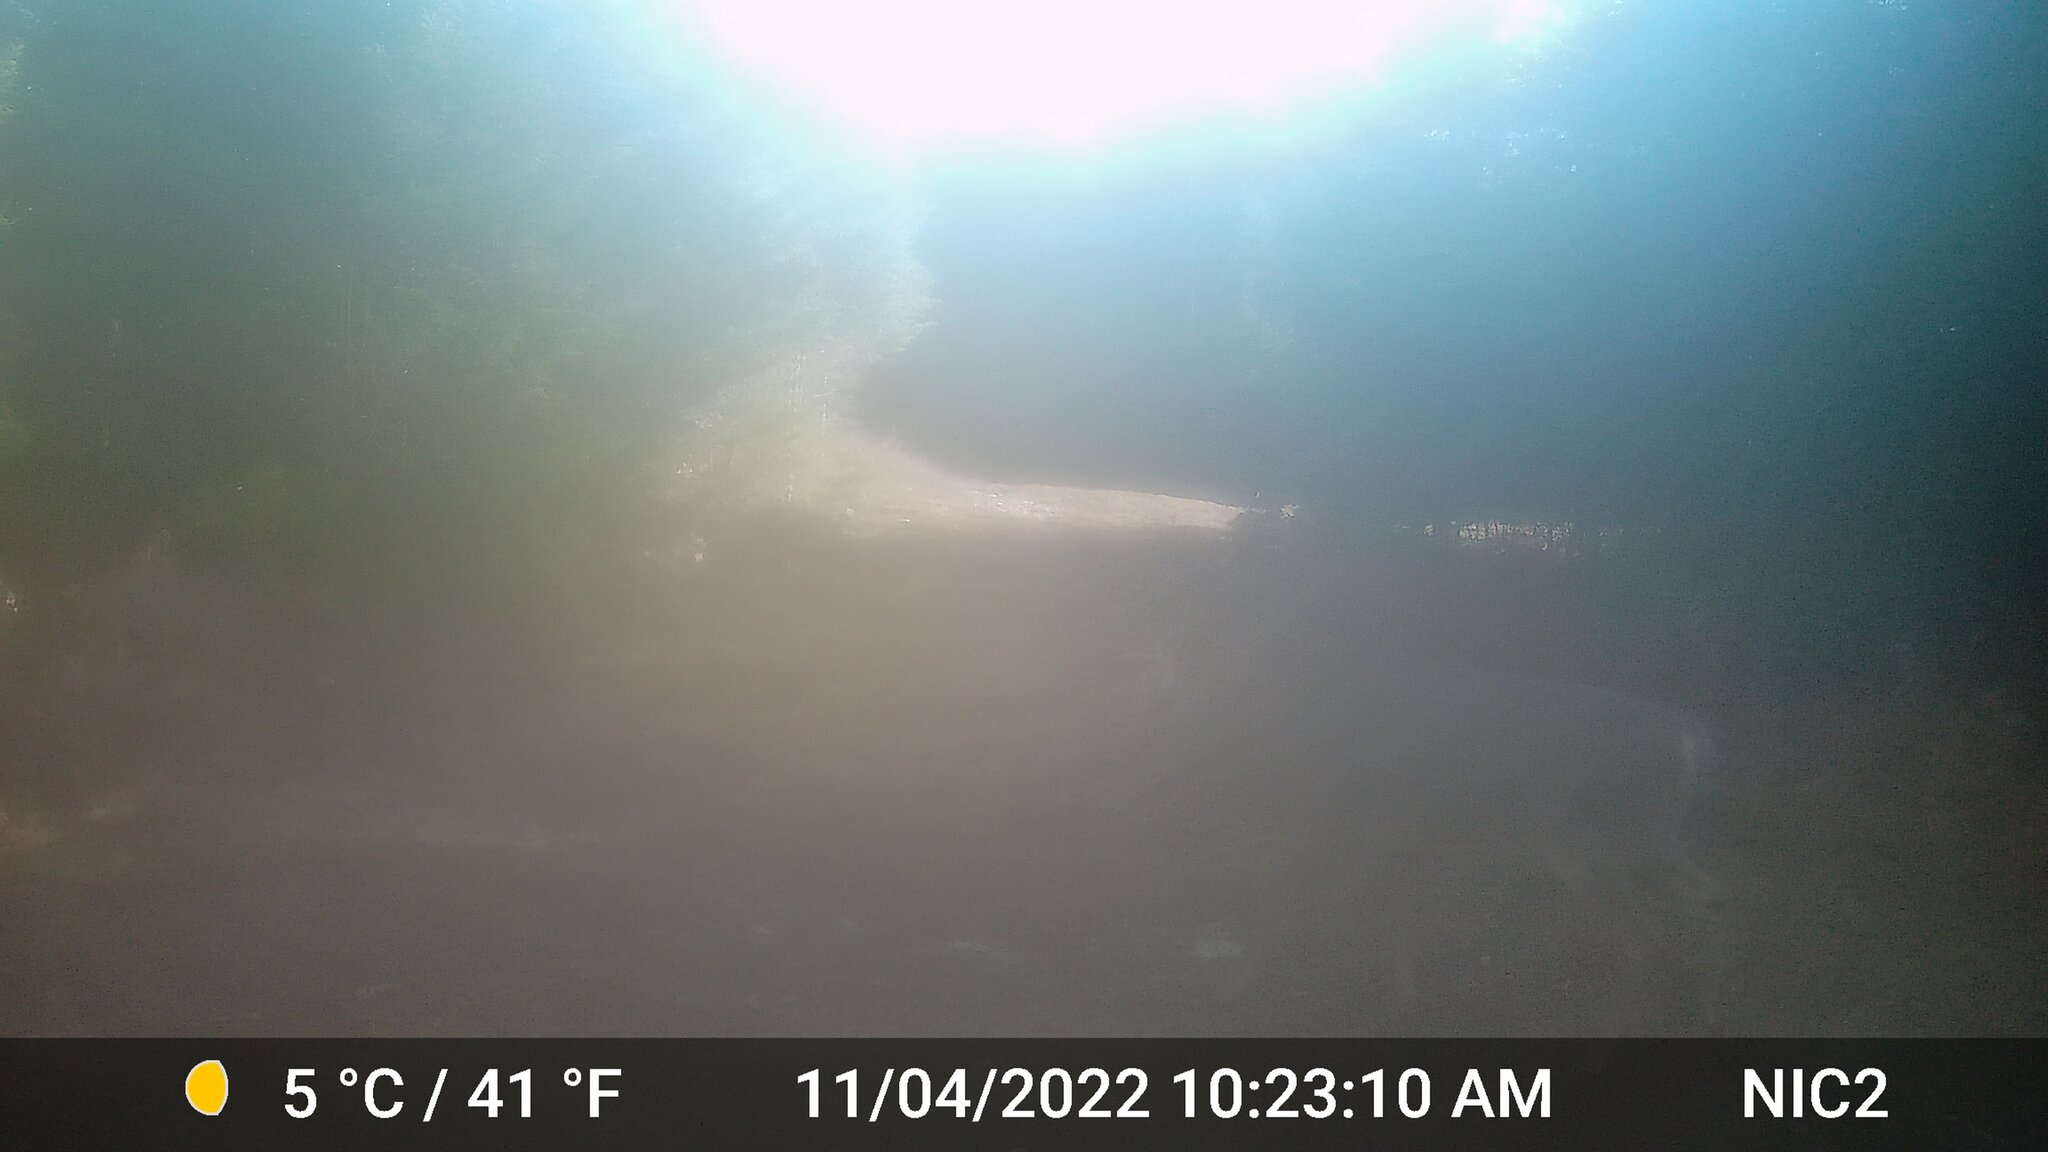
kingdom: Animalia
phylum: Chordata
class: Mammalia
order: Artiodactyla
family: Cervidae
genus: Odocoileus
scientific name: Odocoileus virginianus
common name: White-tailed deer
